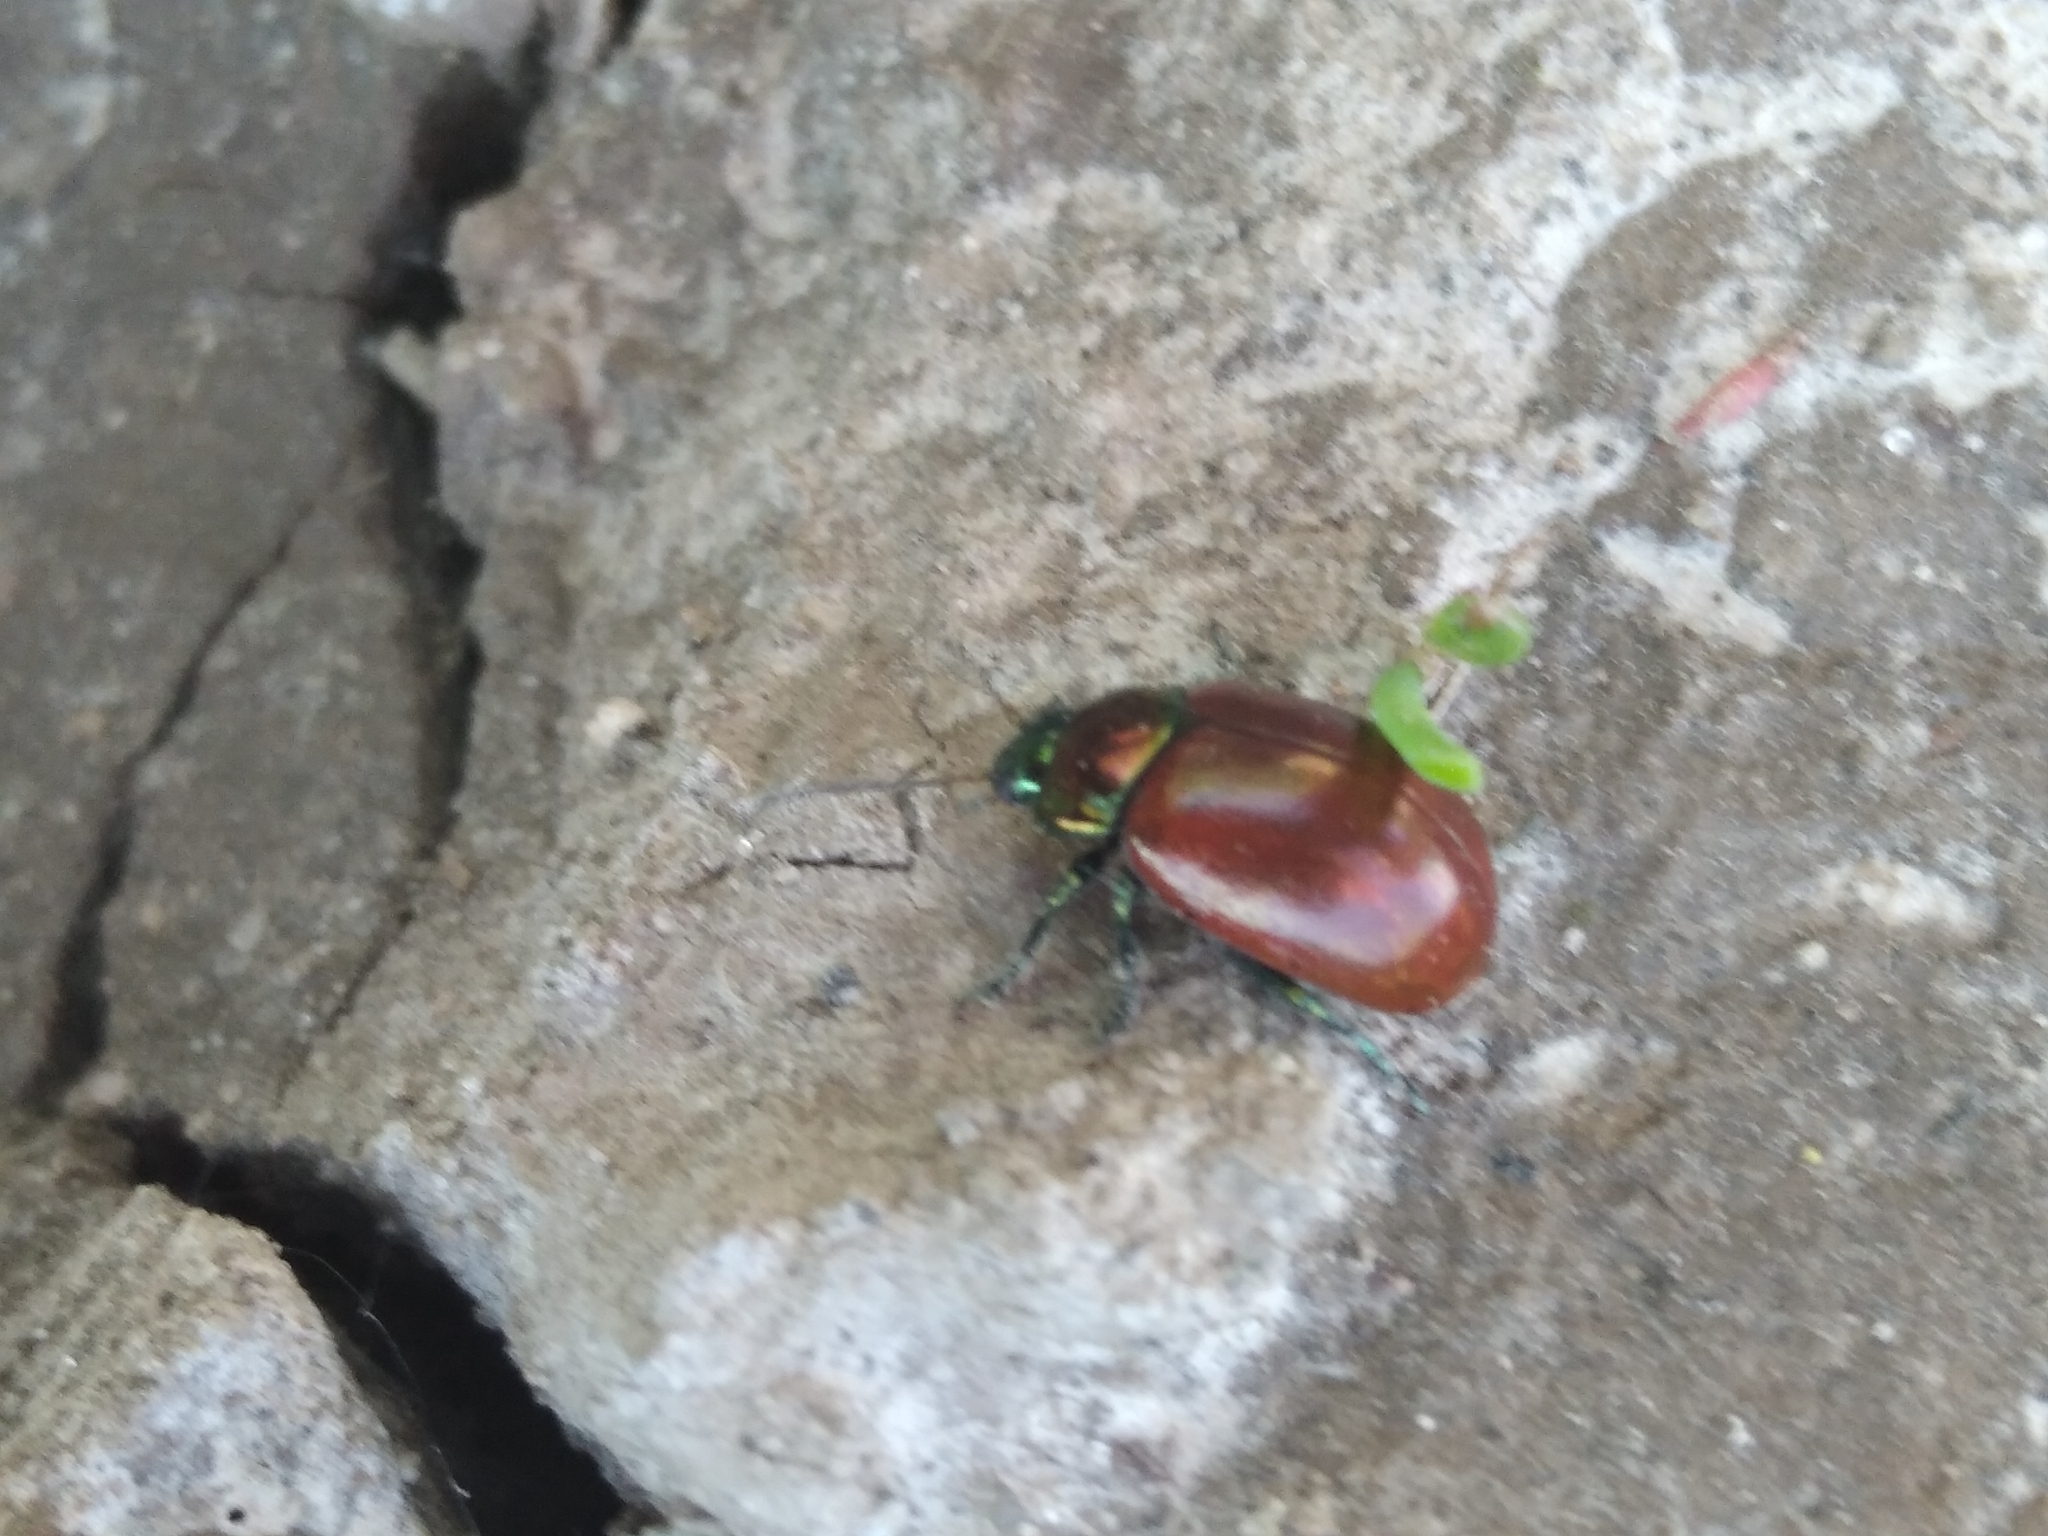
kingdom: Animalia
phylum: Arthropoda
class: Insecta
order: Coleoptera
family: Chrysomelidae
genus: Chrysomela
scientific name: Chrysomela polita
